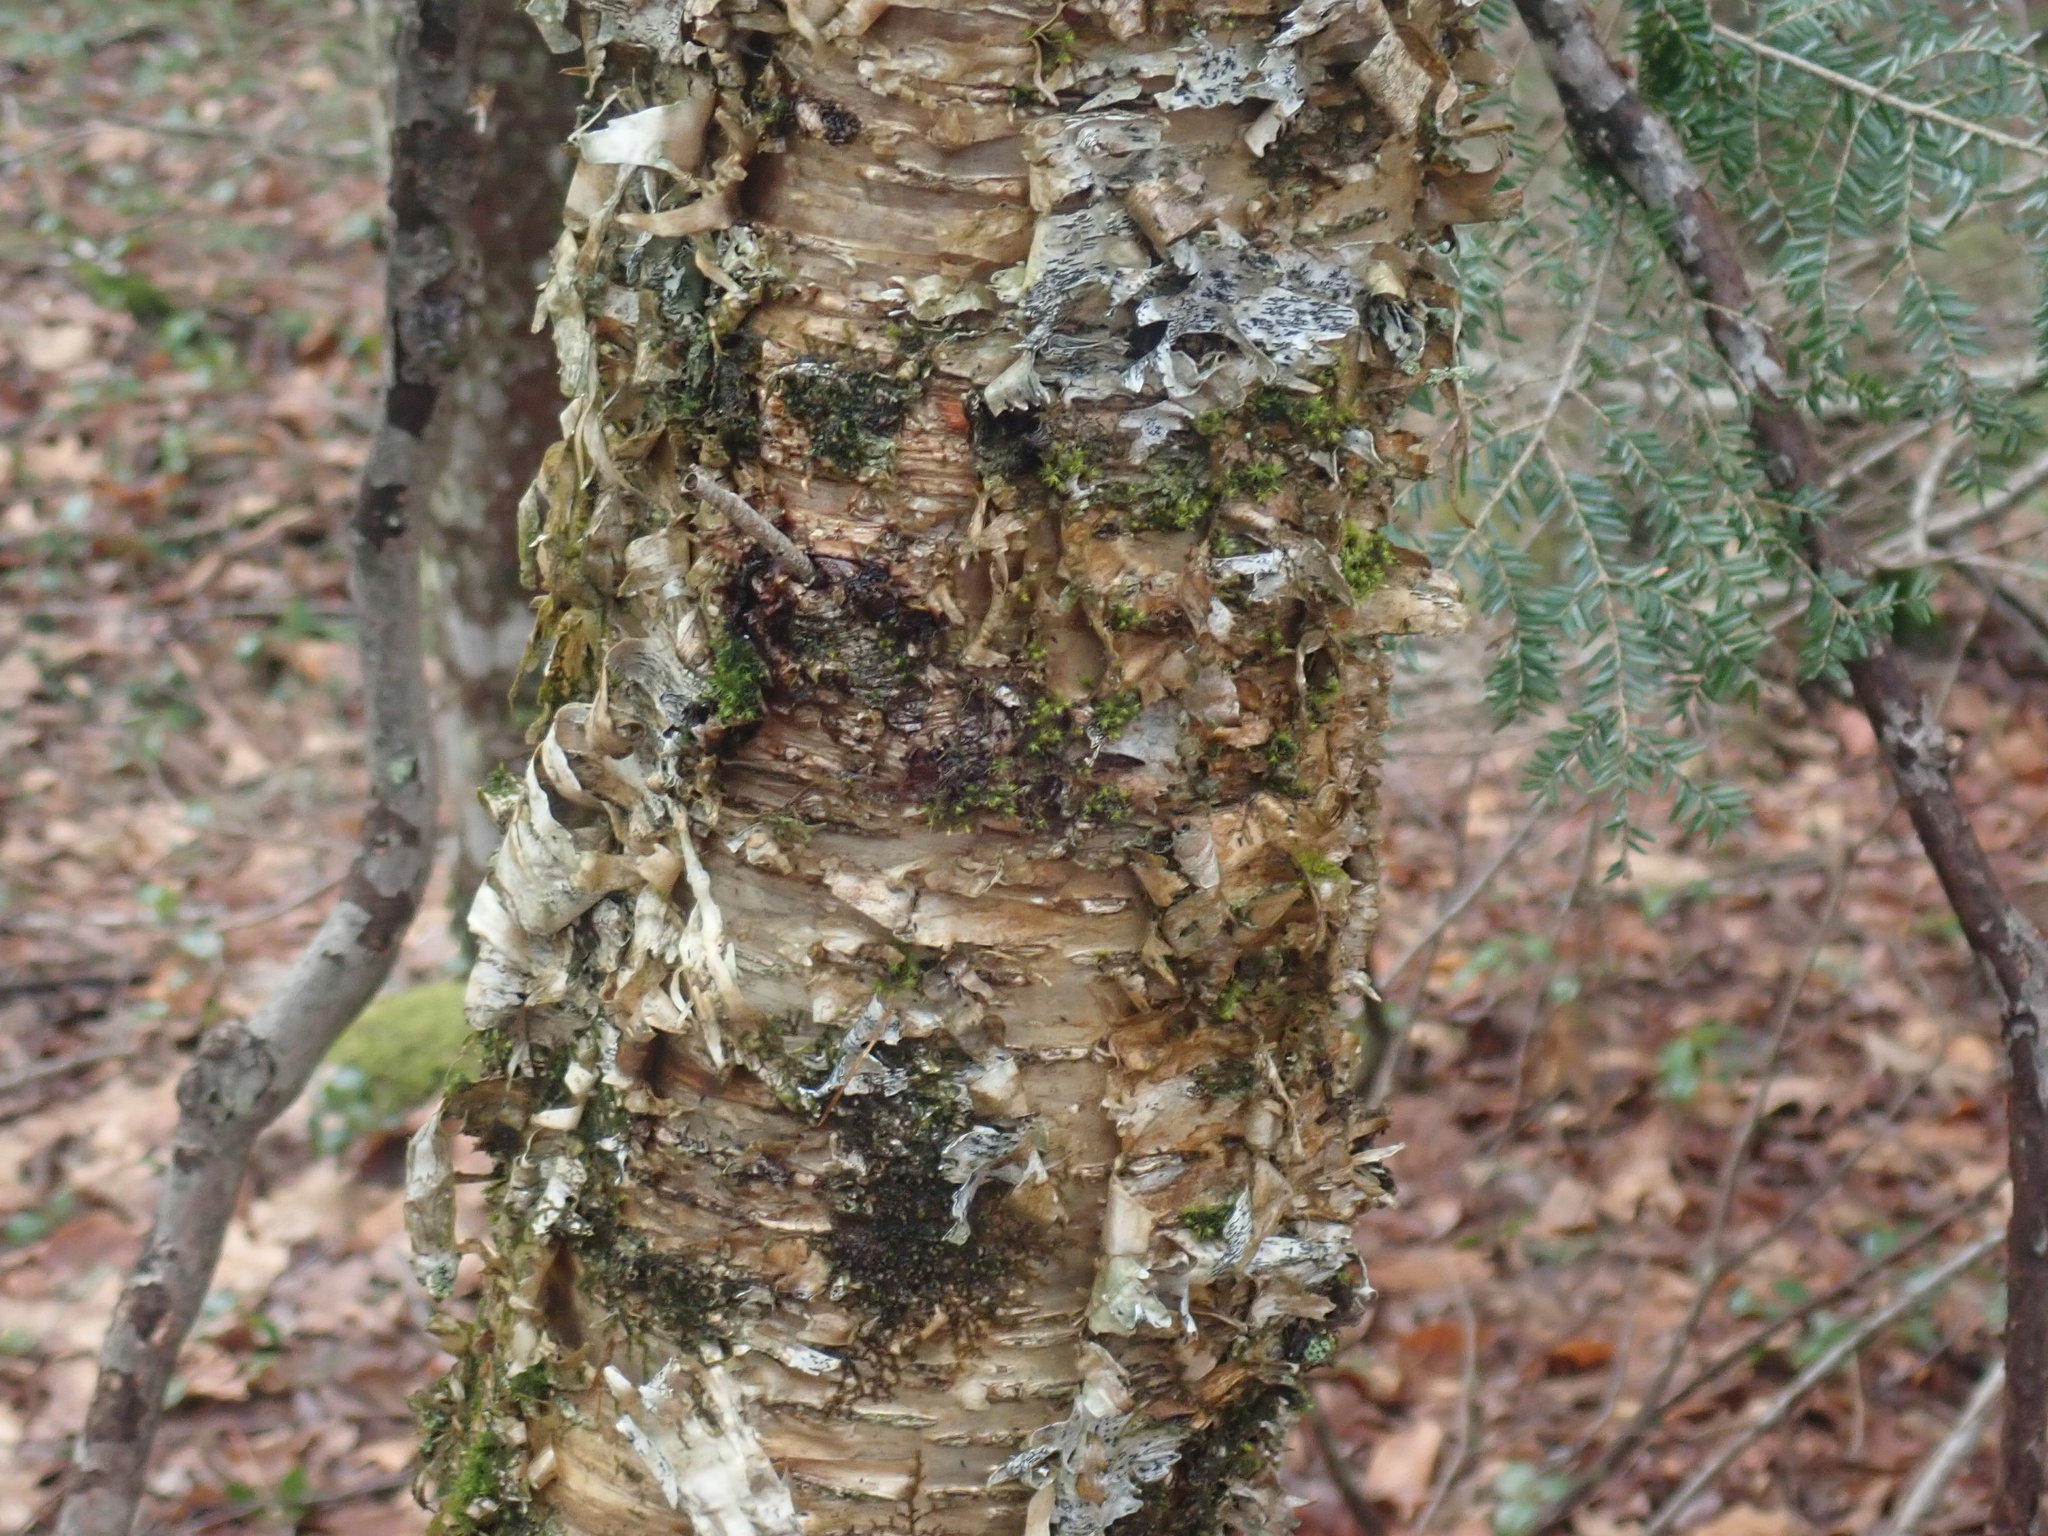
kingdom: Plantae
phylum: Tracheophyta
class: Magnoliopsida
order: Fagales
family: Betulaceae
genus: Betula
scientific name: Betula alleghaniensis
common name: Yellow birch
